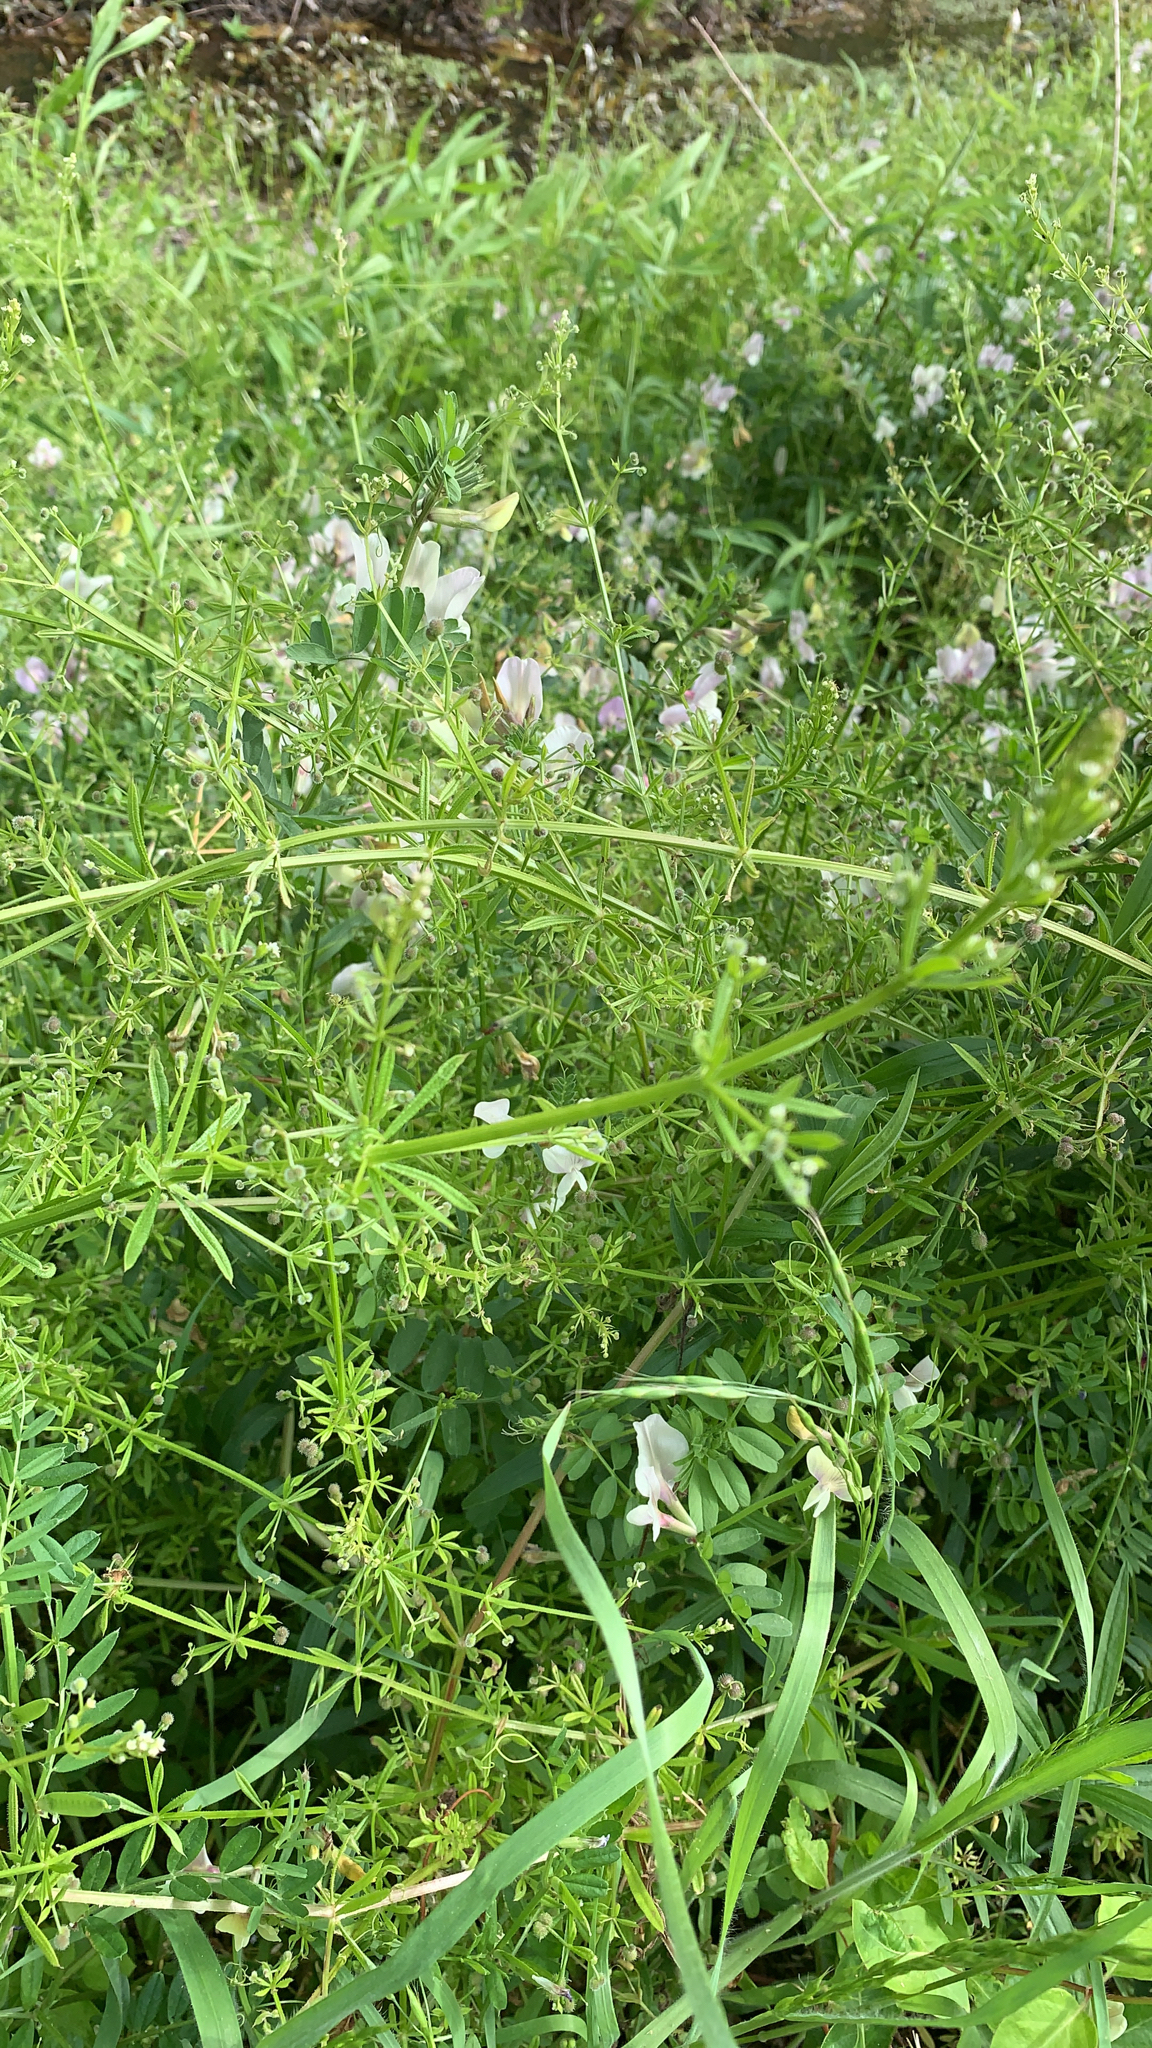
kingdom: Plantae
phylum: Tracheophyta
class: Magnoliopsida
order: Gentianales
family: Rubiaceae
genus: Galium
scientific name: Galium aparine
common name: Cleavers
